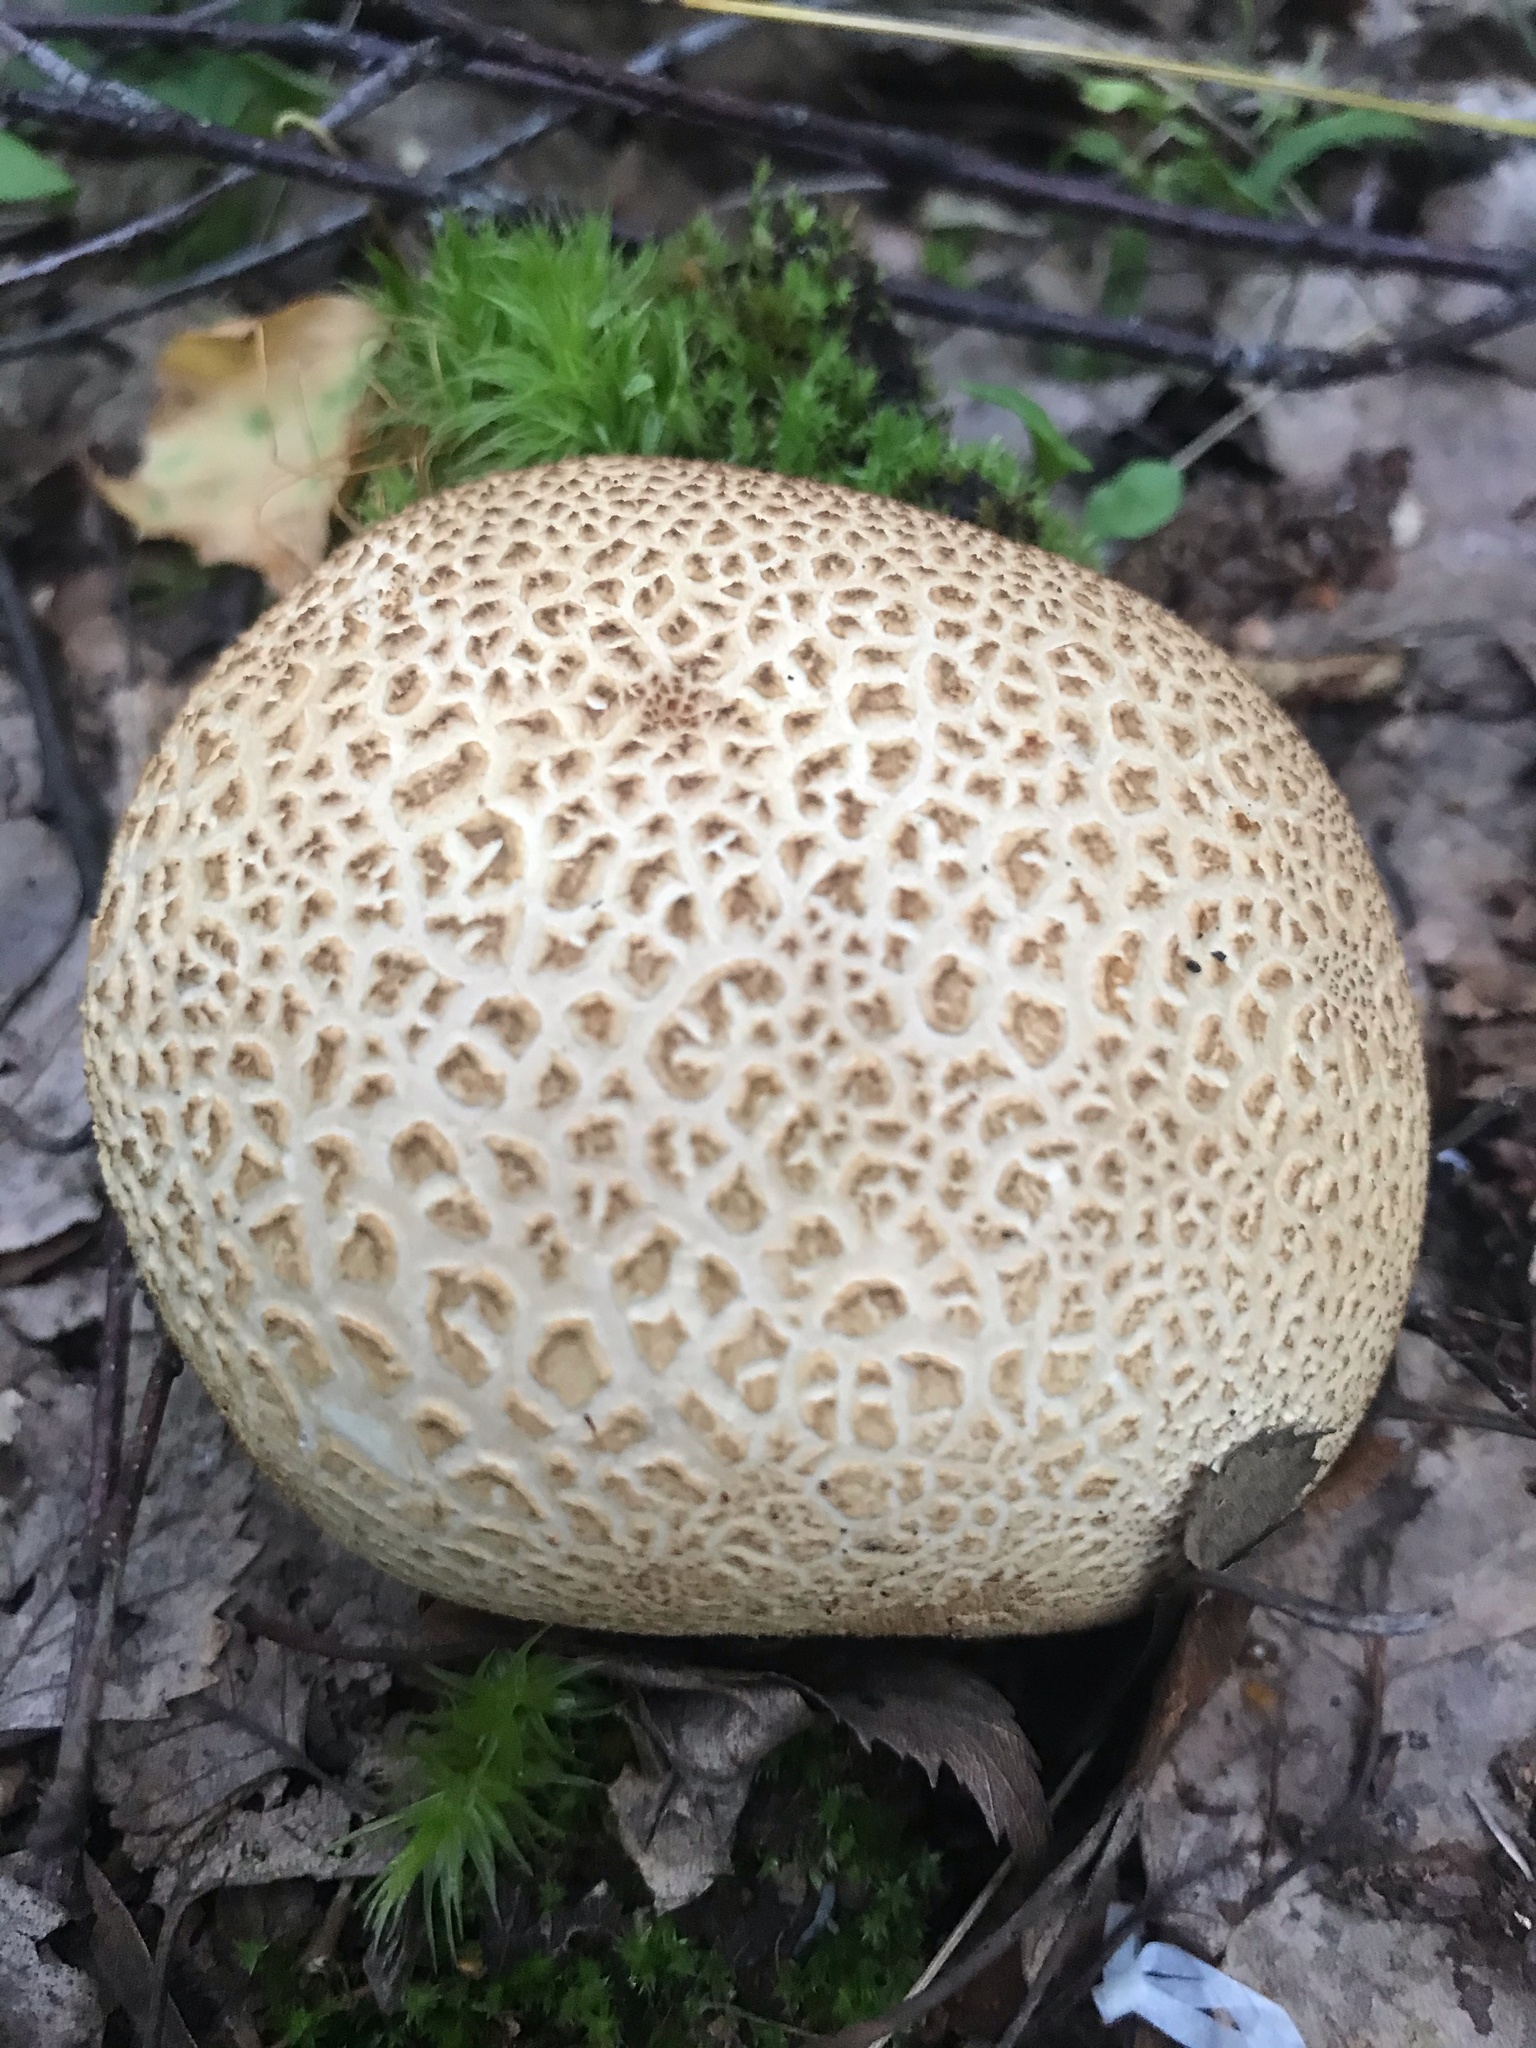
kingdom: Fungi
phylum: Basidiomycota
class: Agaricomycetes
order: Boletales
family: Sclerodermataceae
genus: Scleroderma
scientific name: Scleroderma citrinum
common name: Common earthball
